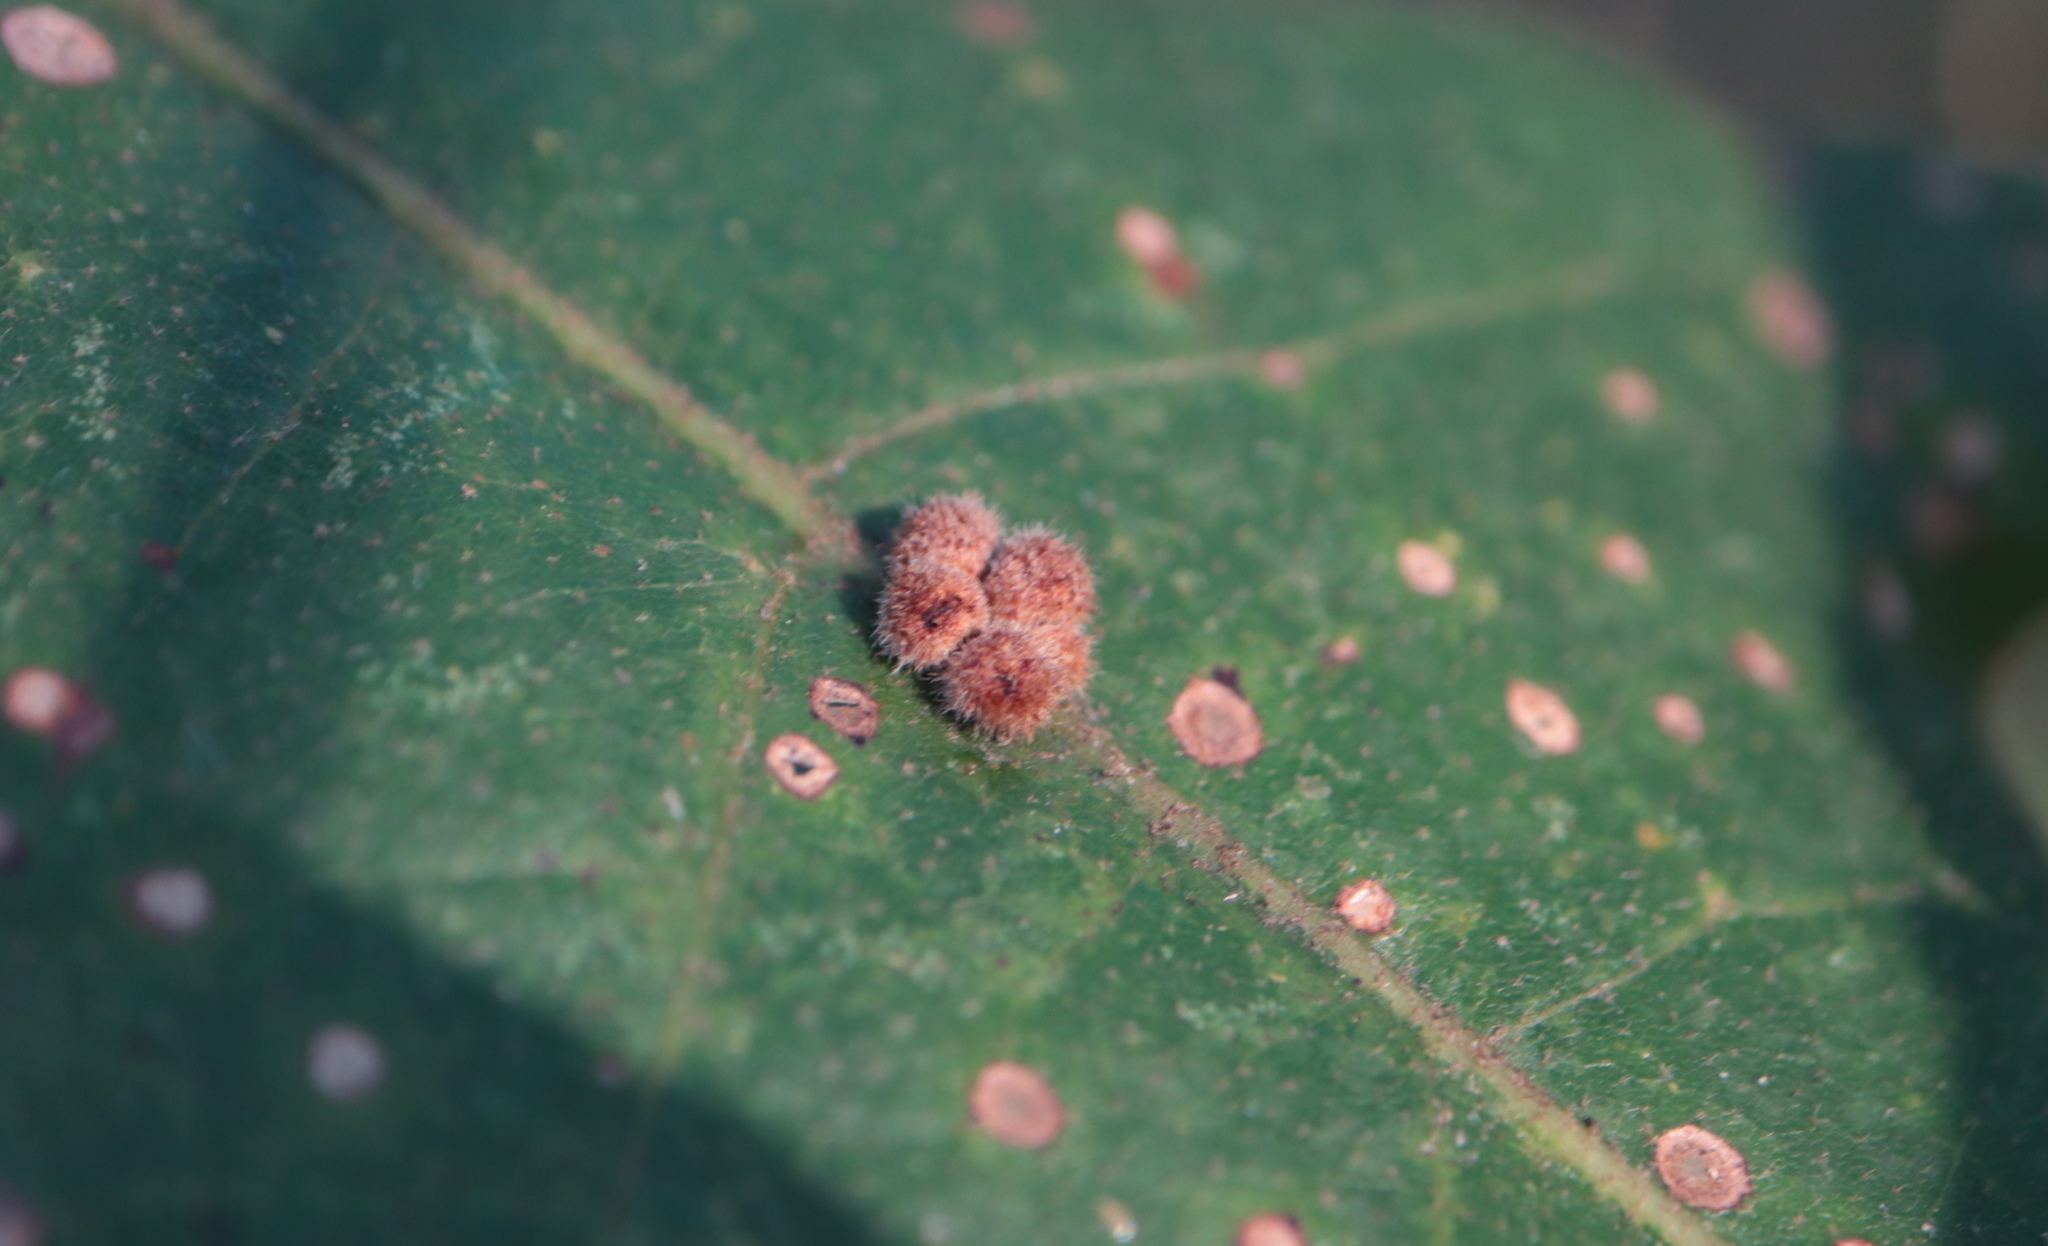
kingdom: Animalia
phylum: Arthropoda
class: Insecta
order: Hymenoptera
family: Cynipidae
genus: Biorhiza
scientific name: Biorhiza Sphaeroteras carolina
